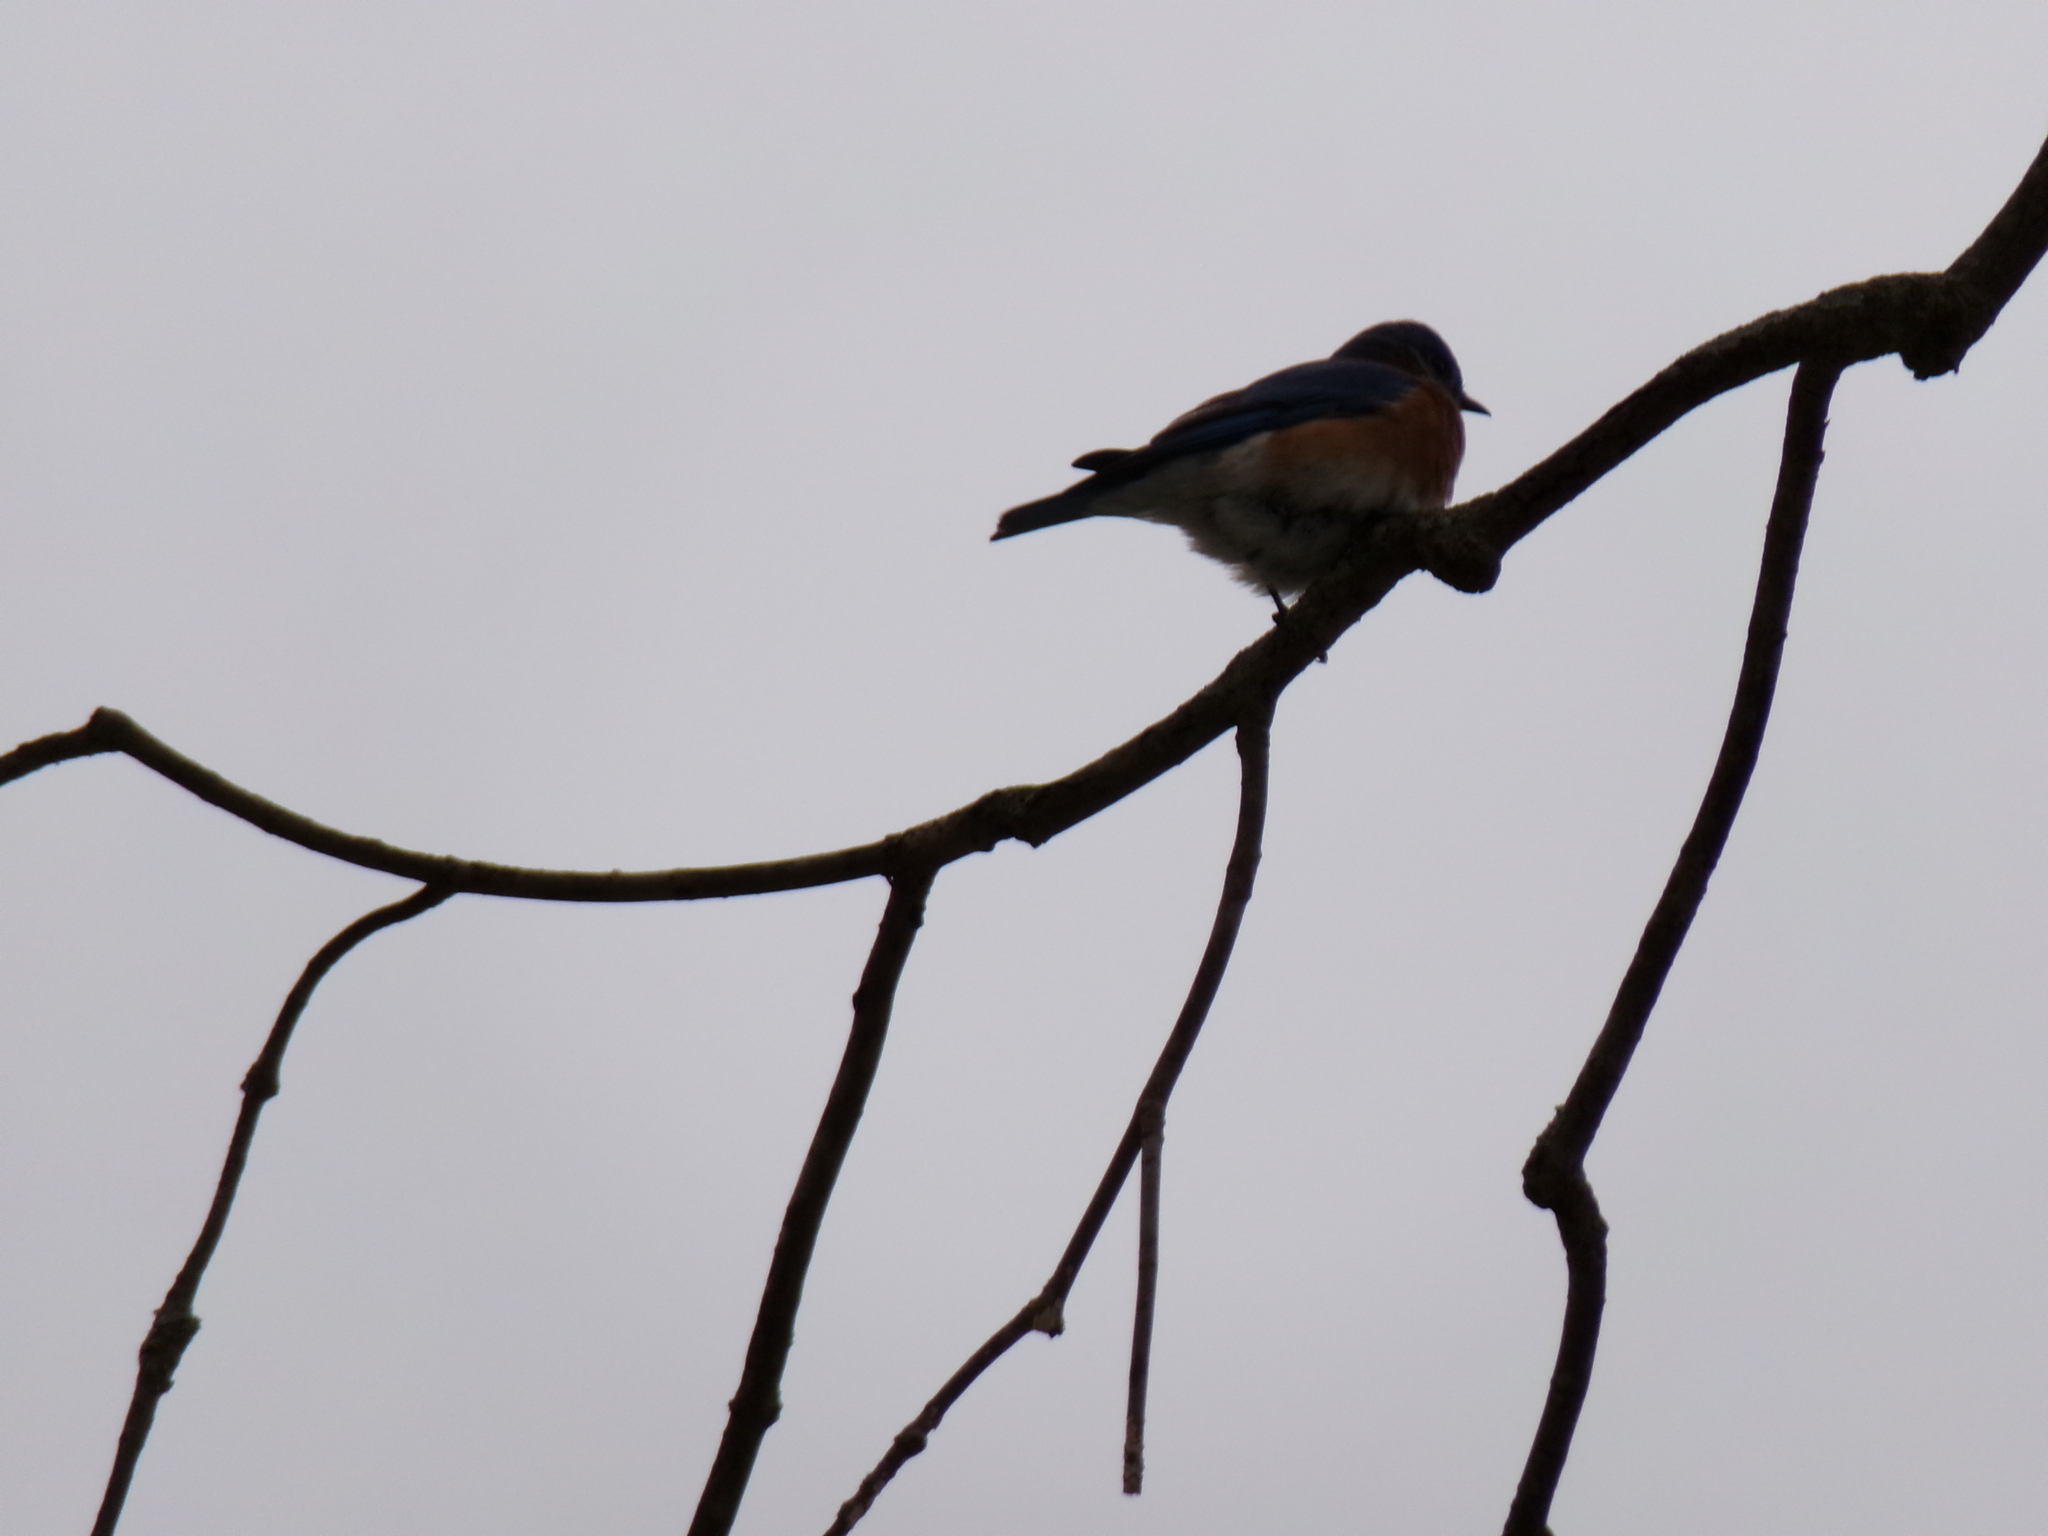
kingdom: Animalia
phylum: Chordata
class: Aves
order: Passeriformes
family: Turdidae
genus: Sialia
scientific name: Sialia sialis
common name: Eastern bluebird
